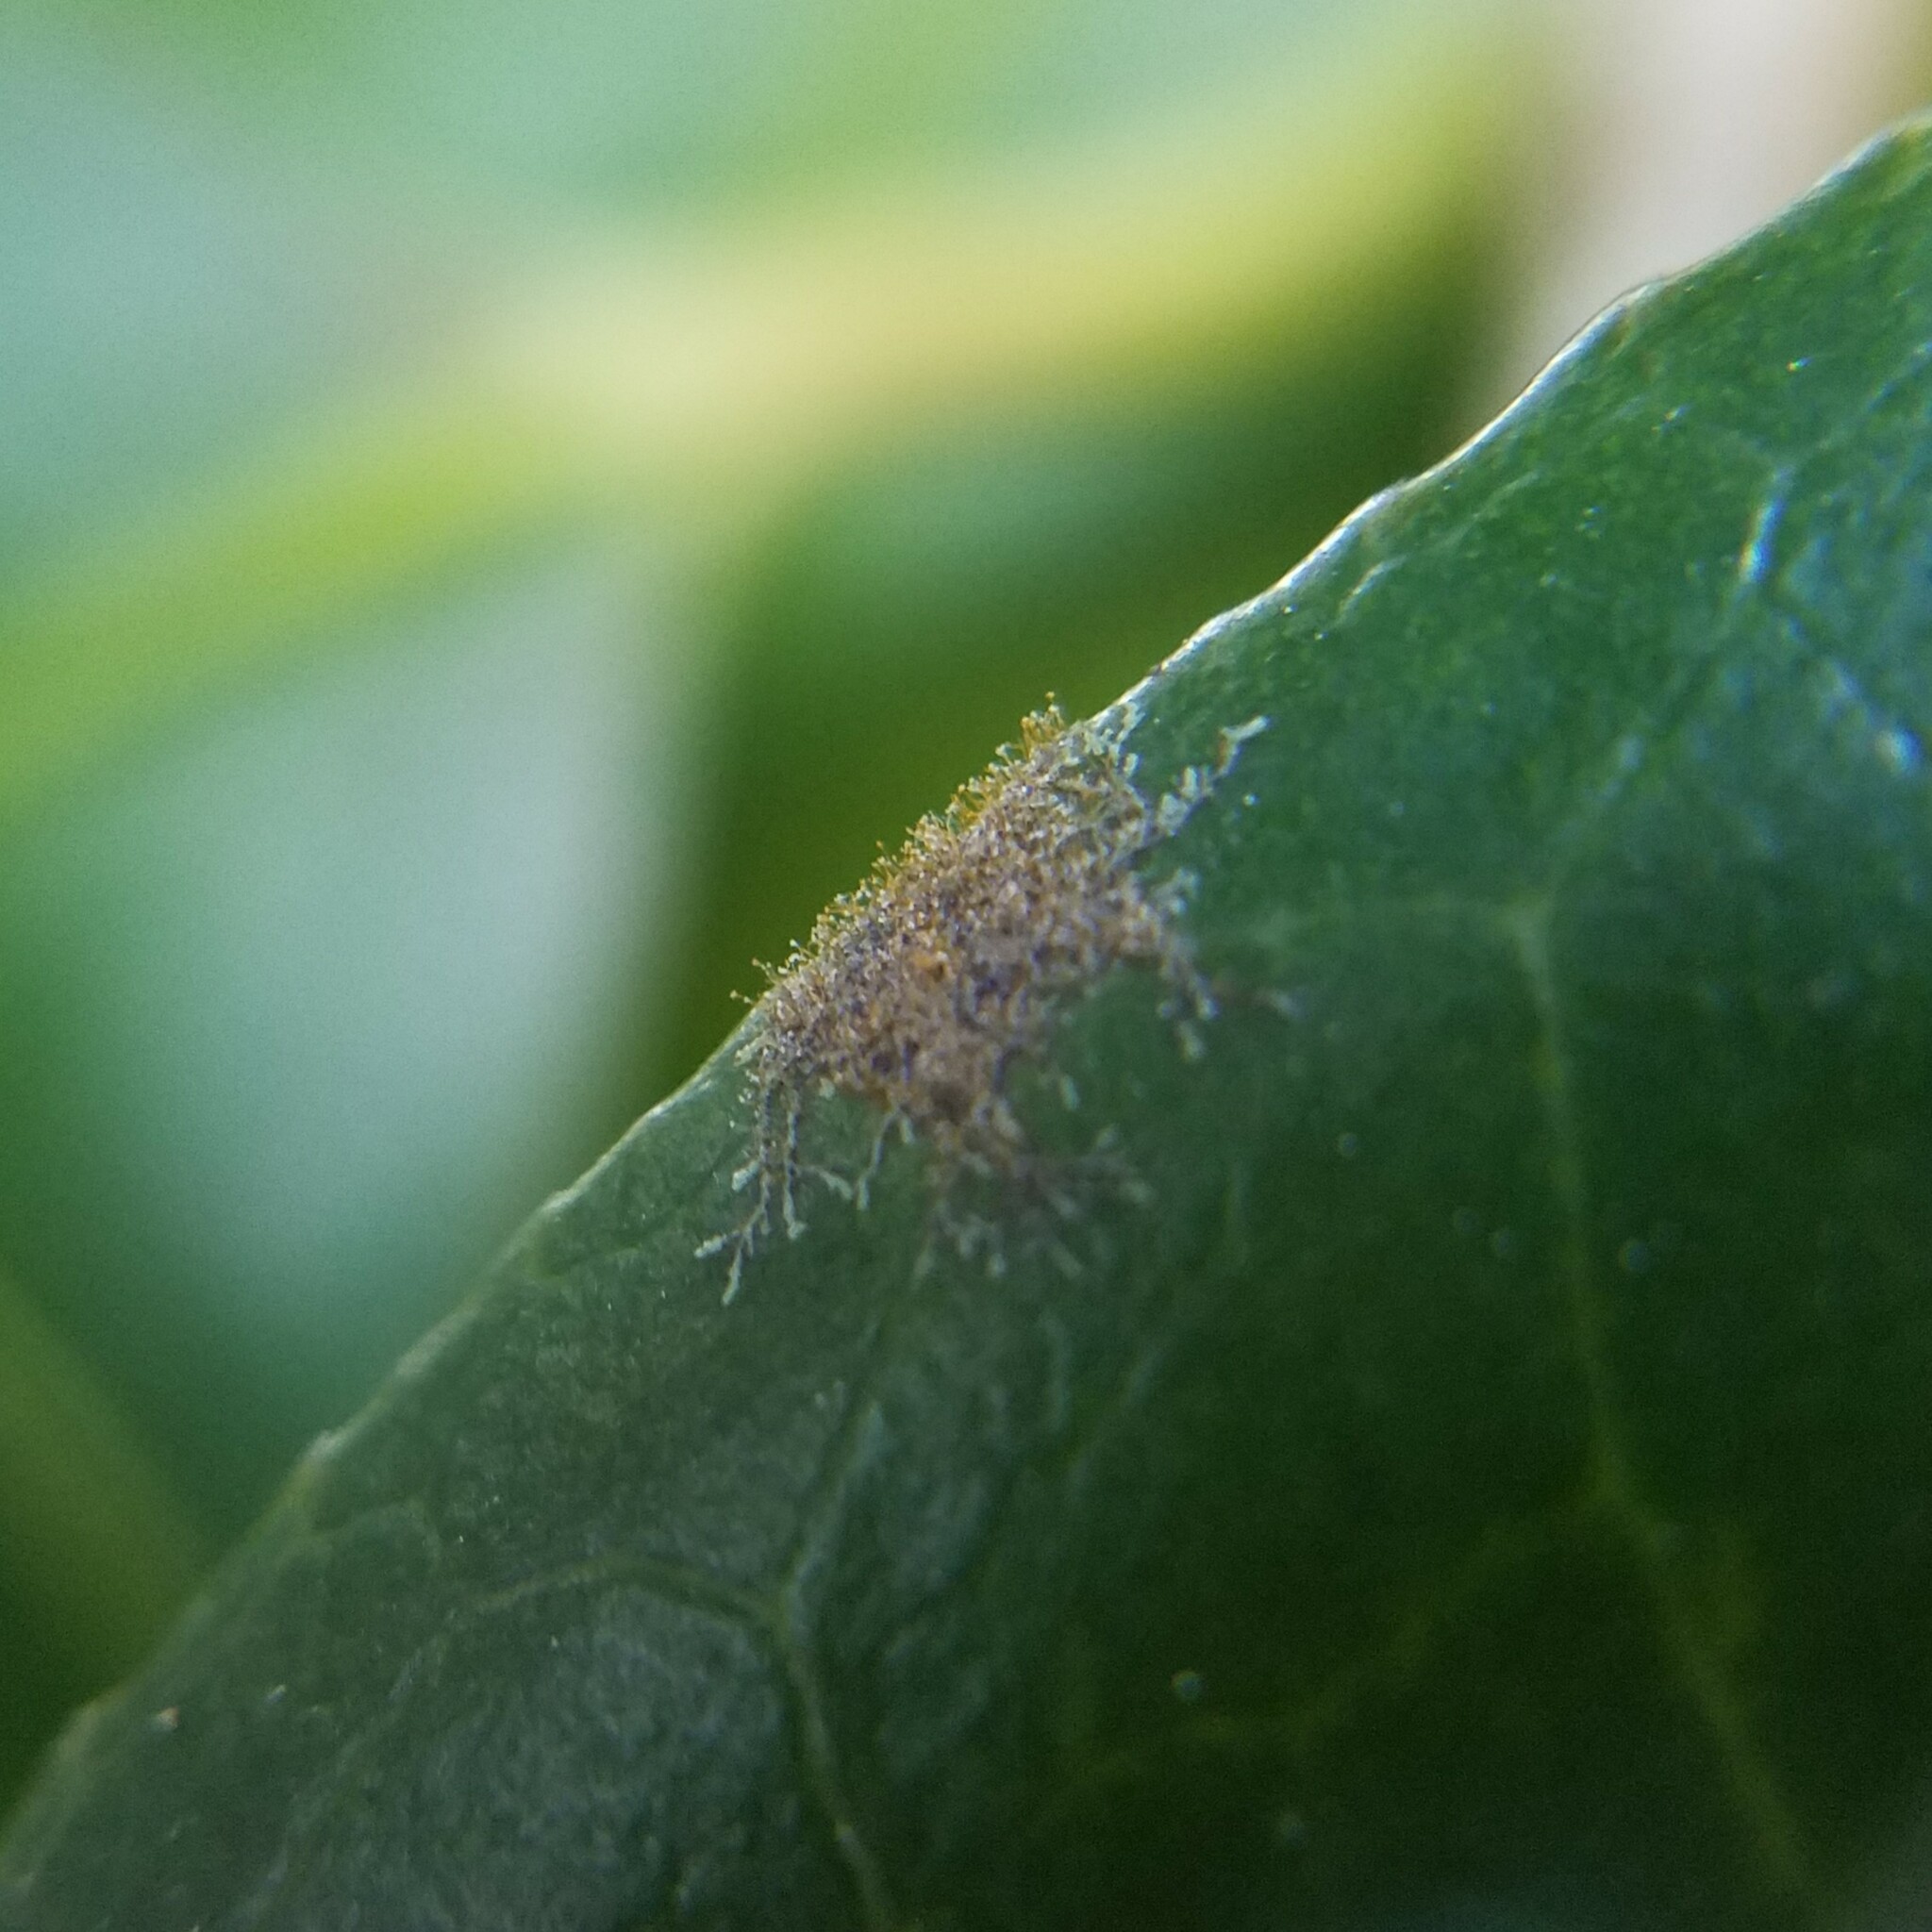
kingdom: Plantae
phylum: Chlorophyta
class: Ulvophyceae
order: Trentepohliales
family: Trentepohliaceae
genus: Cephaleuros
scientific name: Cephaleuros virescens
